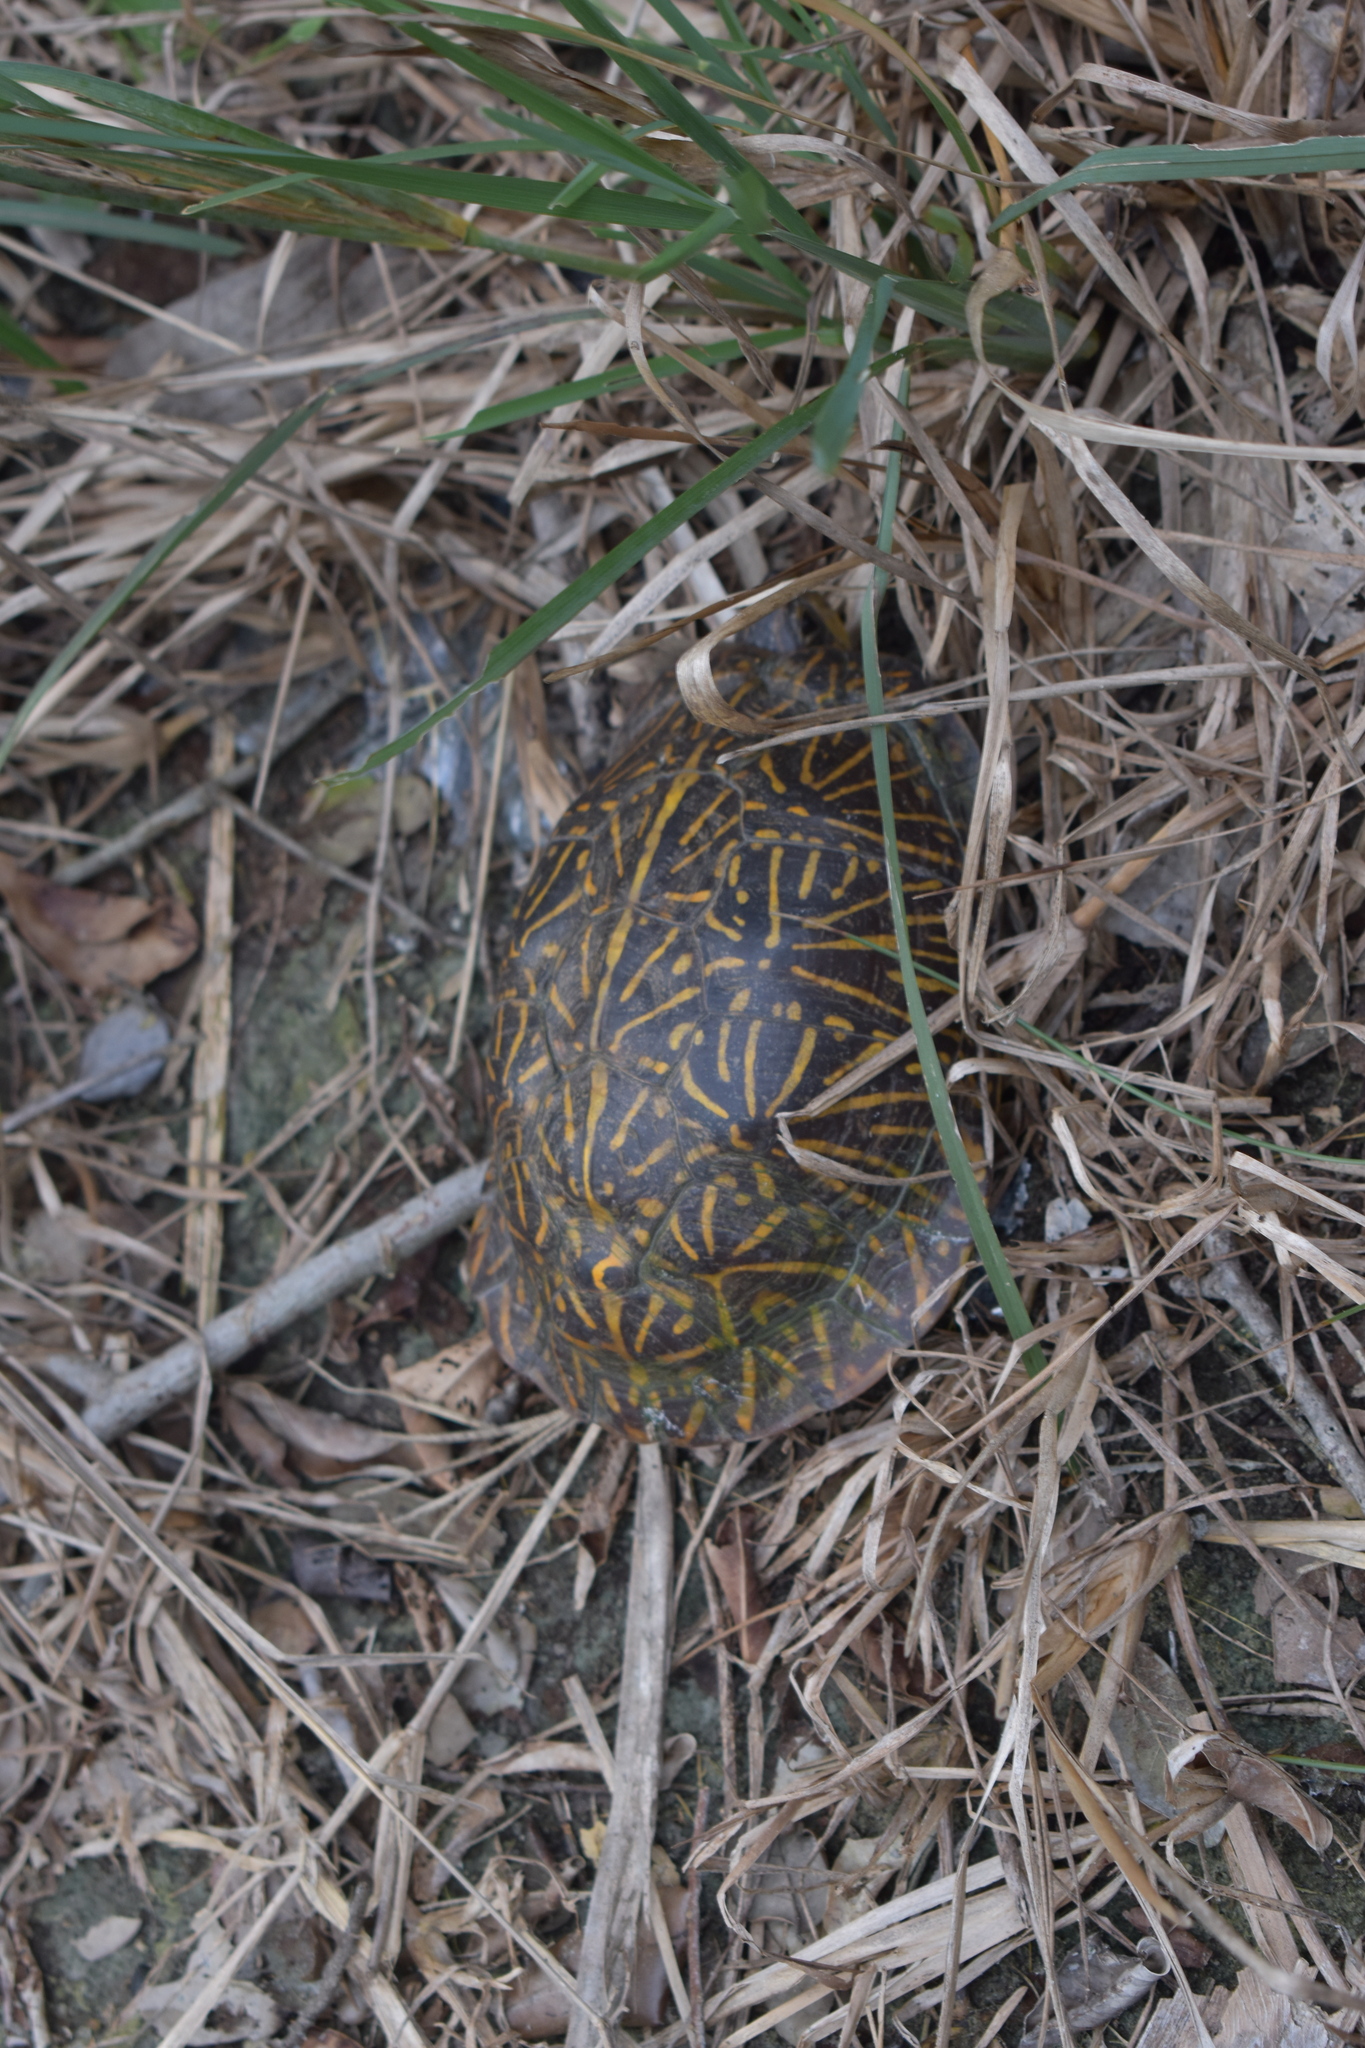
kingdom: Animalia
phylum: Chordata
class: Testudines
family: Emydidae
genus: Terrapene
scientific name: Terrapene carolina
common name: Common box turtle
